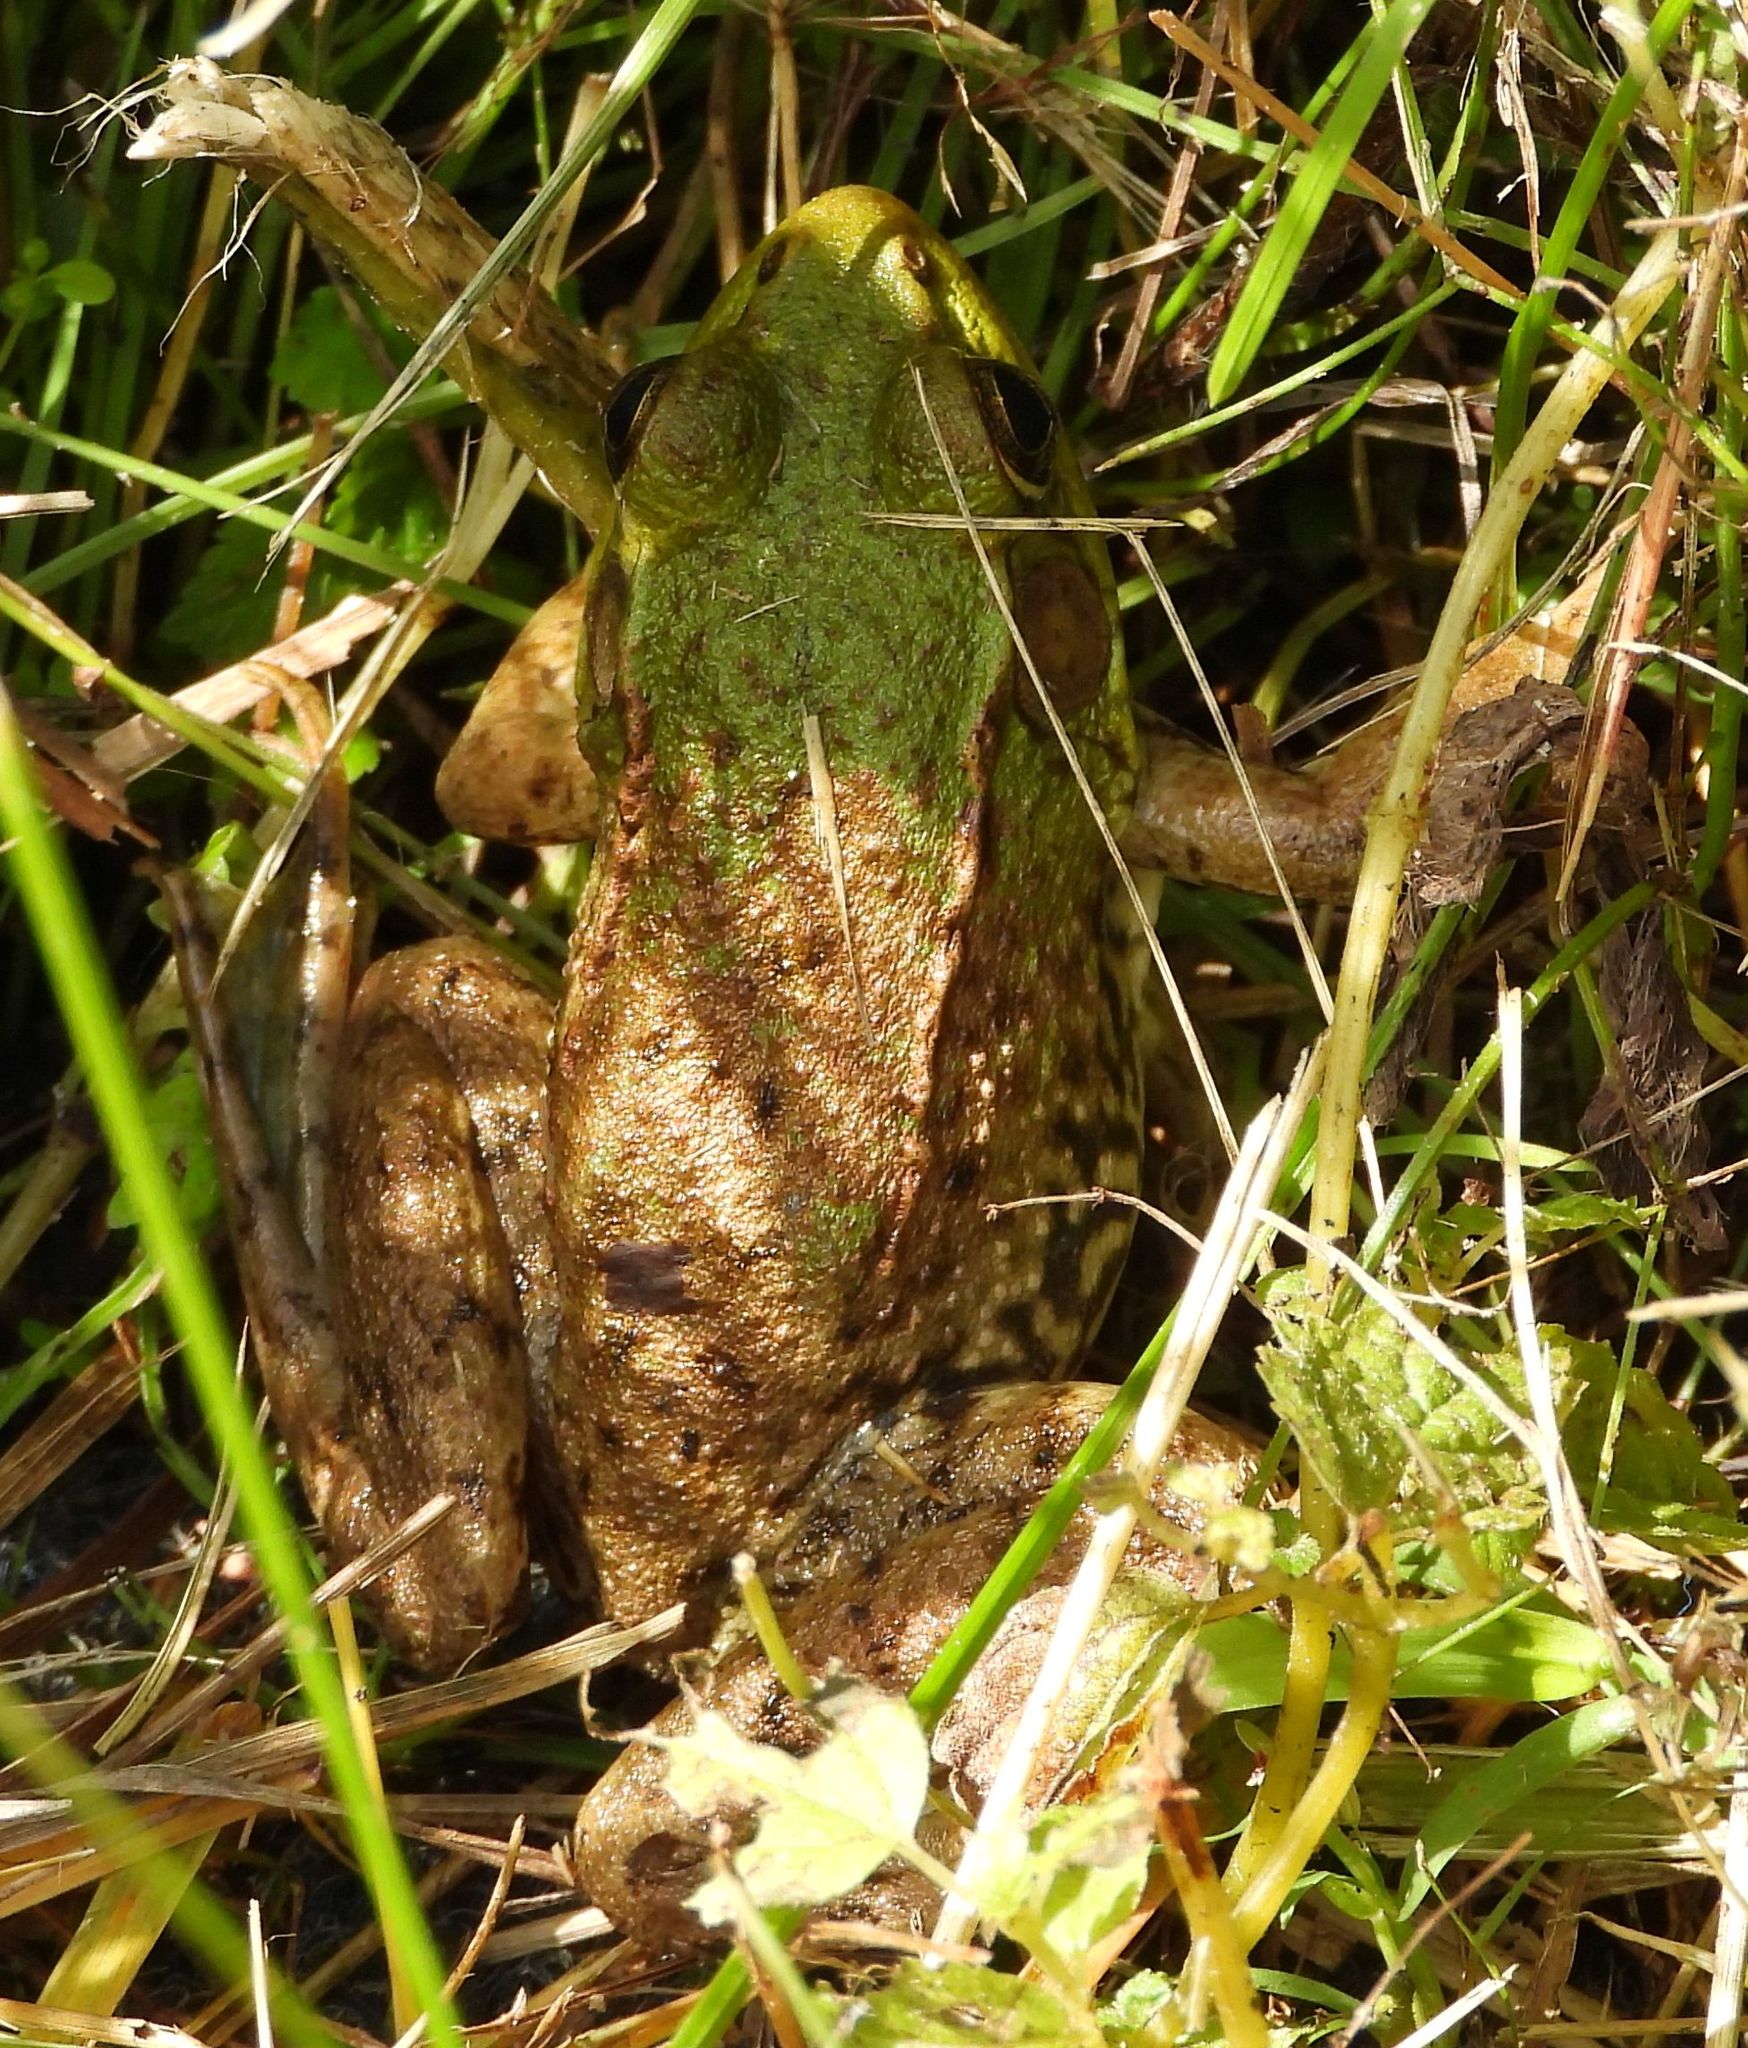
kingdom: Animalia
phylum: Chordata
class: Amphibia
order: Anura
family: Ranidae
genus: Lithobates
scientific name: Lithobates clamitans
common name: Green frog
